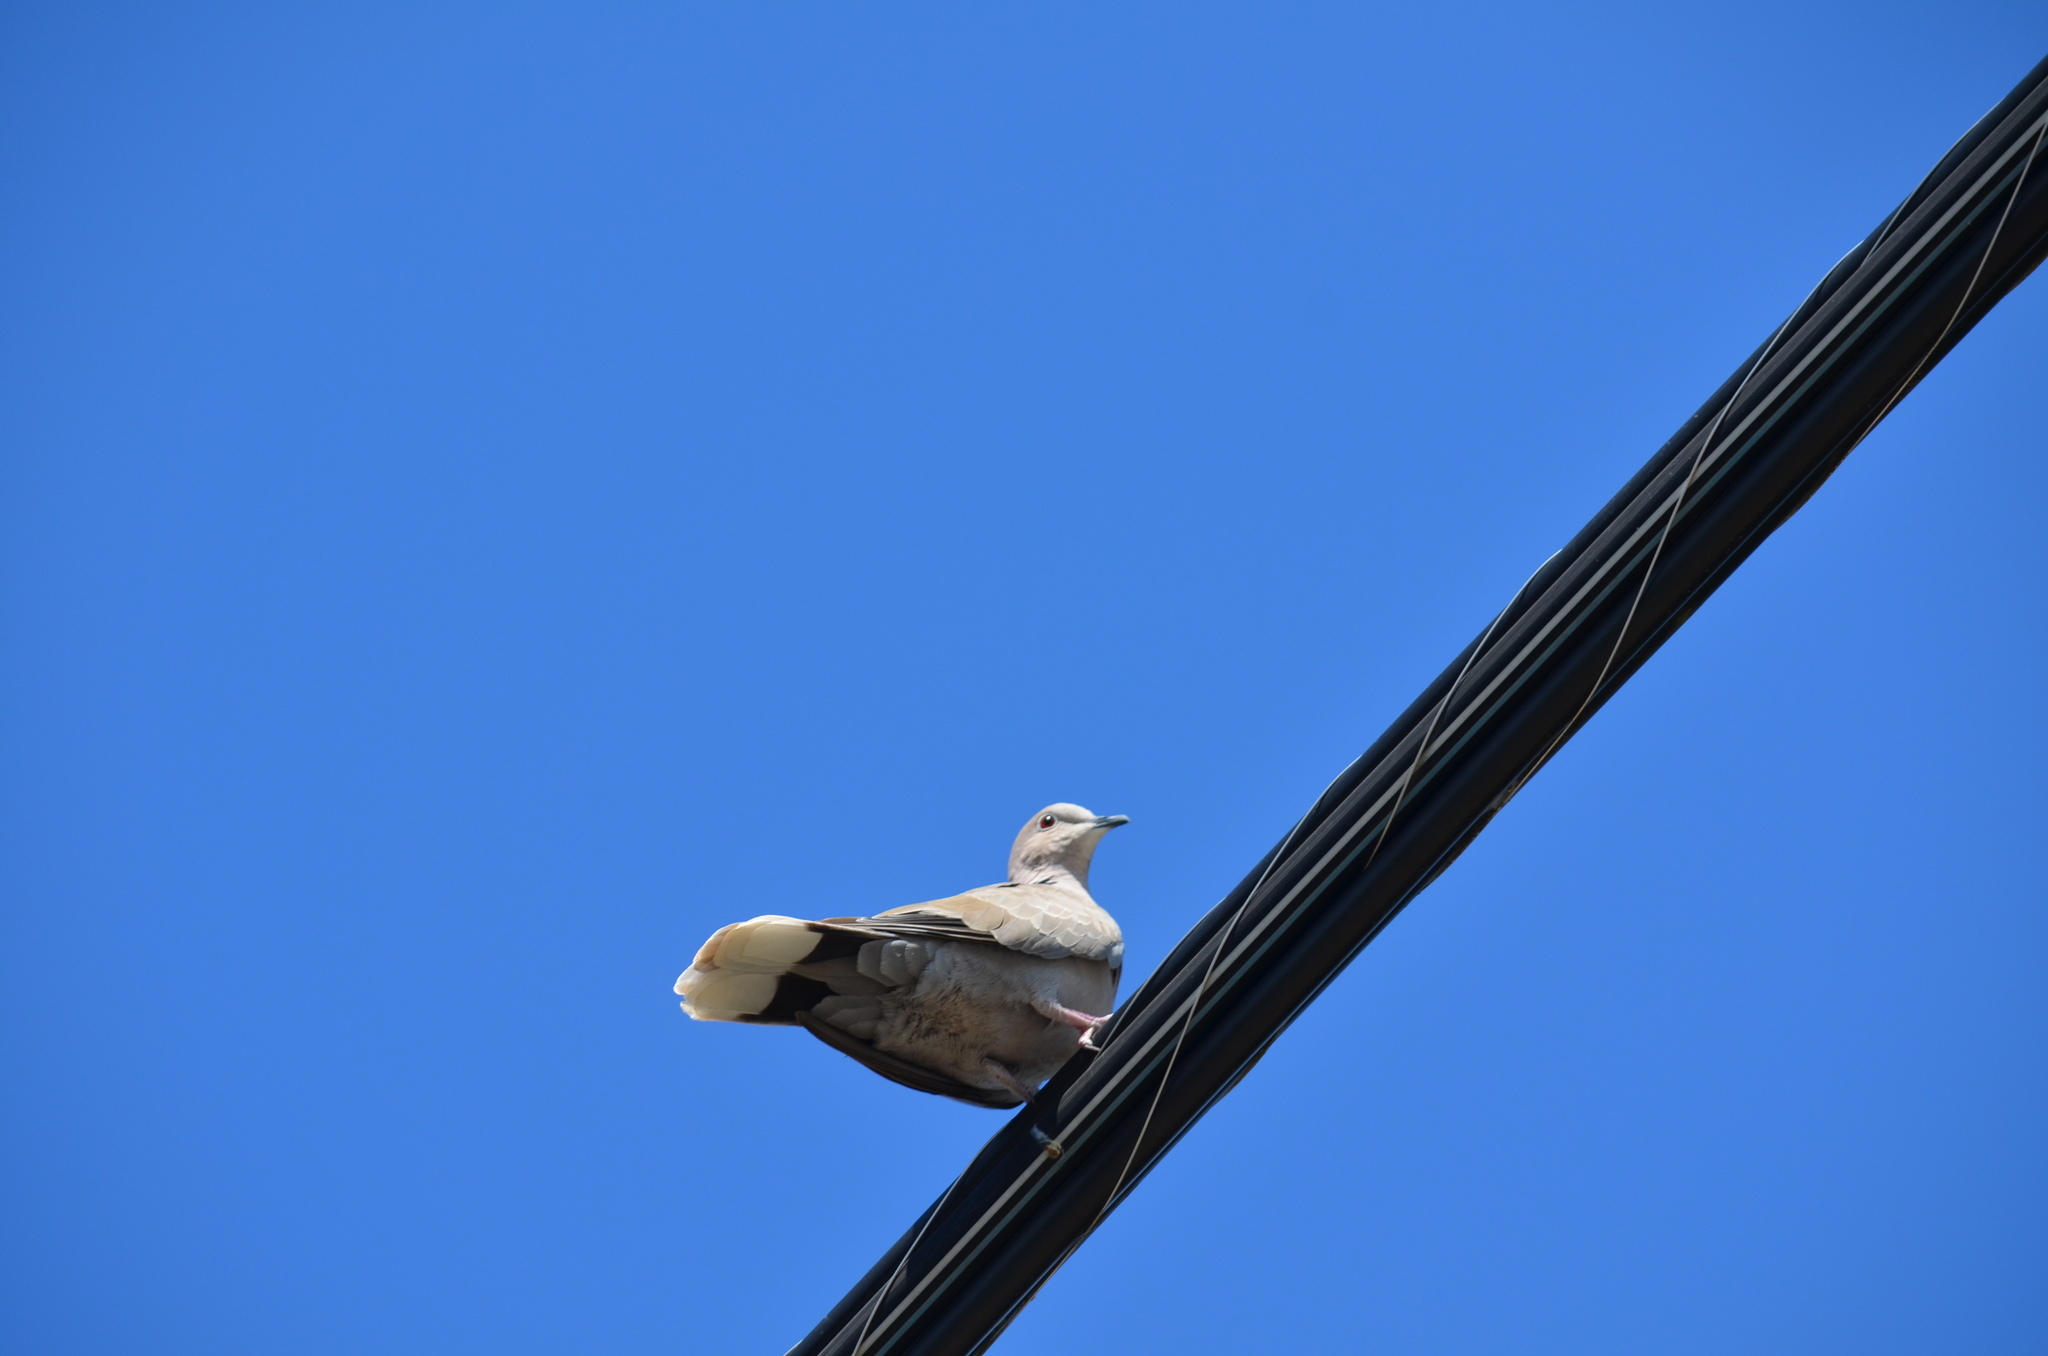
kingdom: Animalia
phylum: Chordata
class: Aves
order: Columbiformes
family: Columbidae
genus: Streptopelia
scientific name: Streptopelia decaocto
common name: Eurasian collared dove
